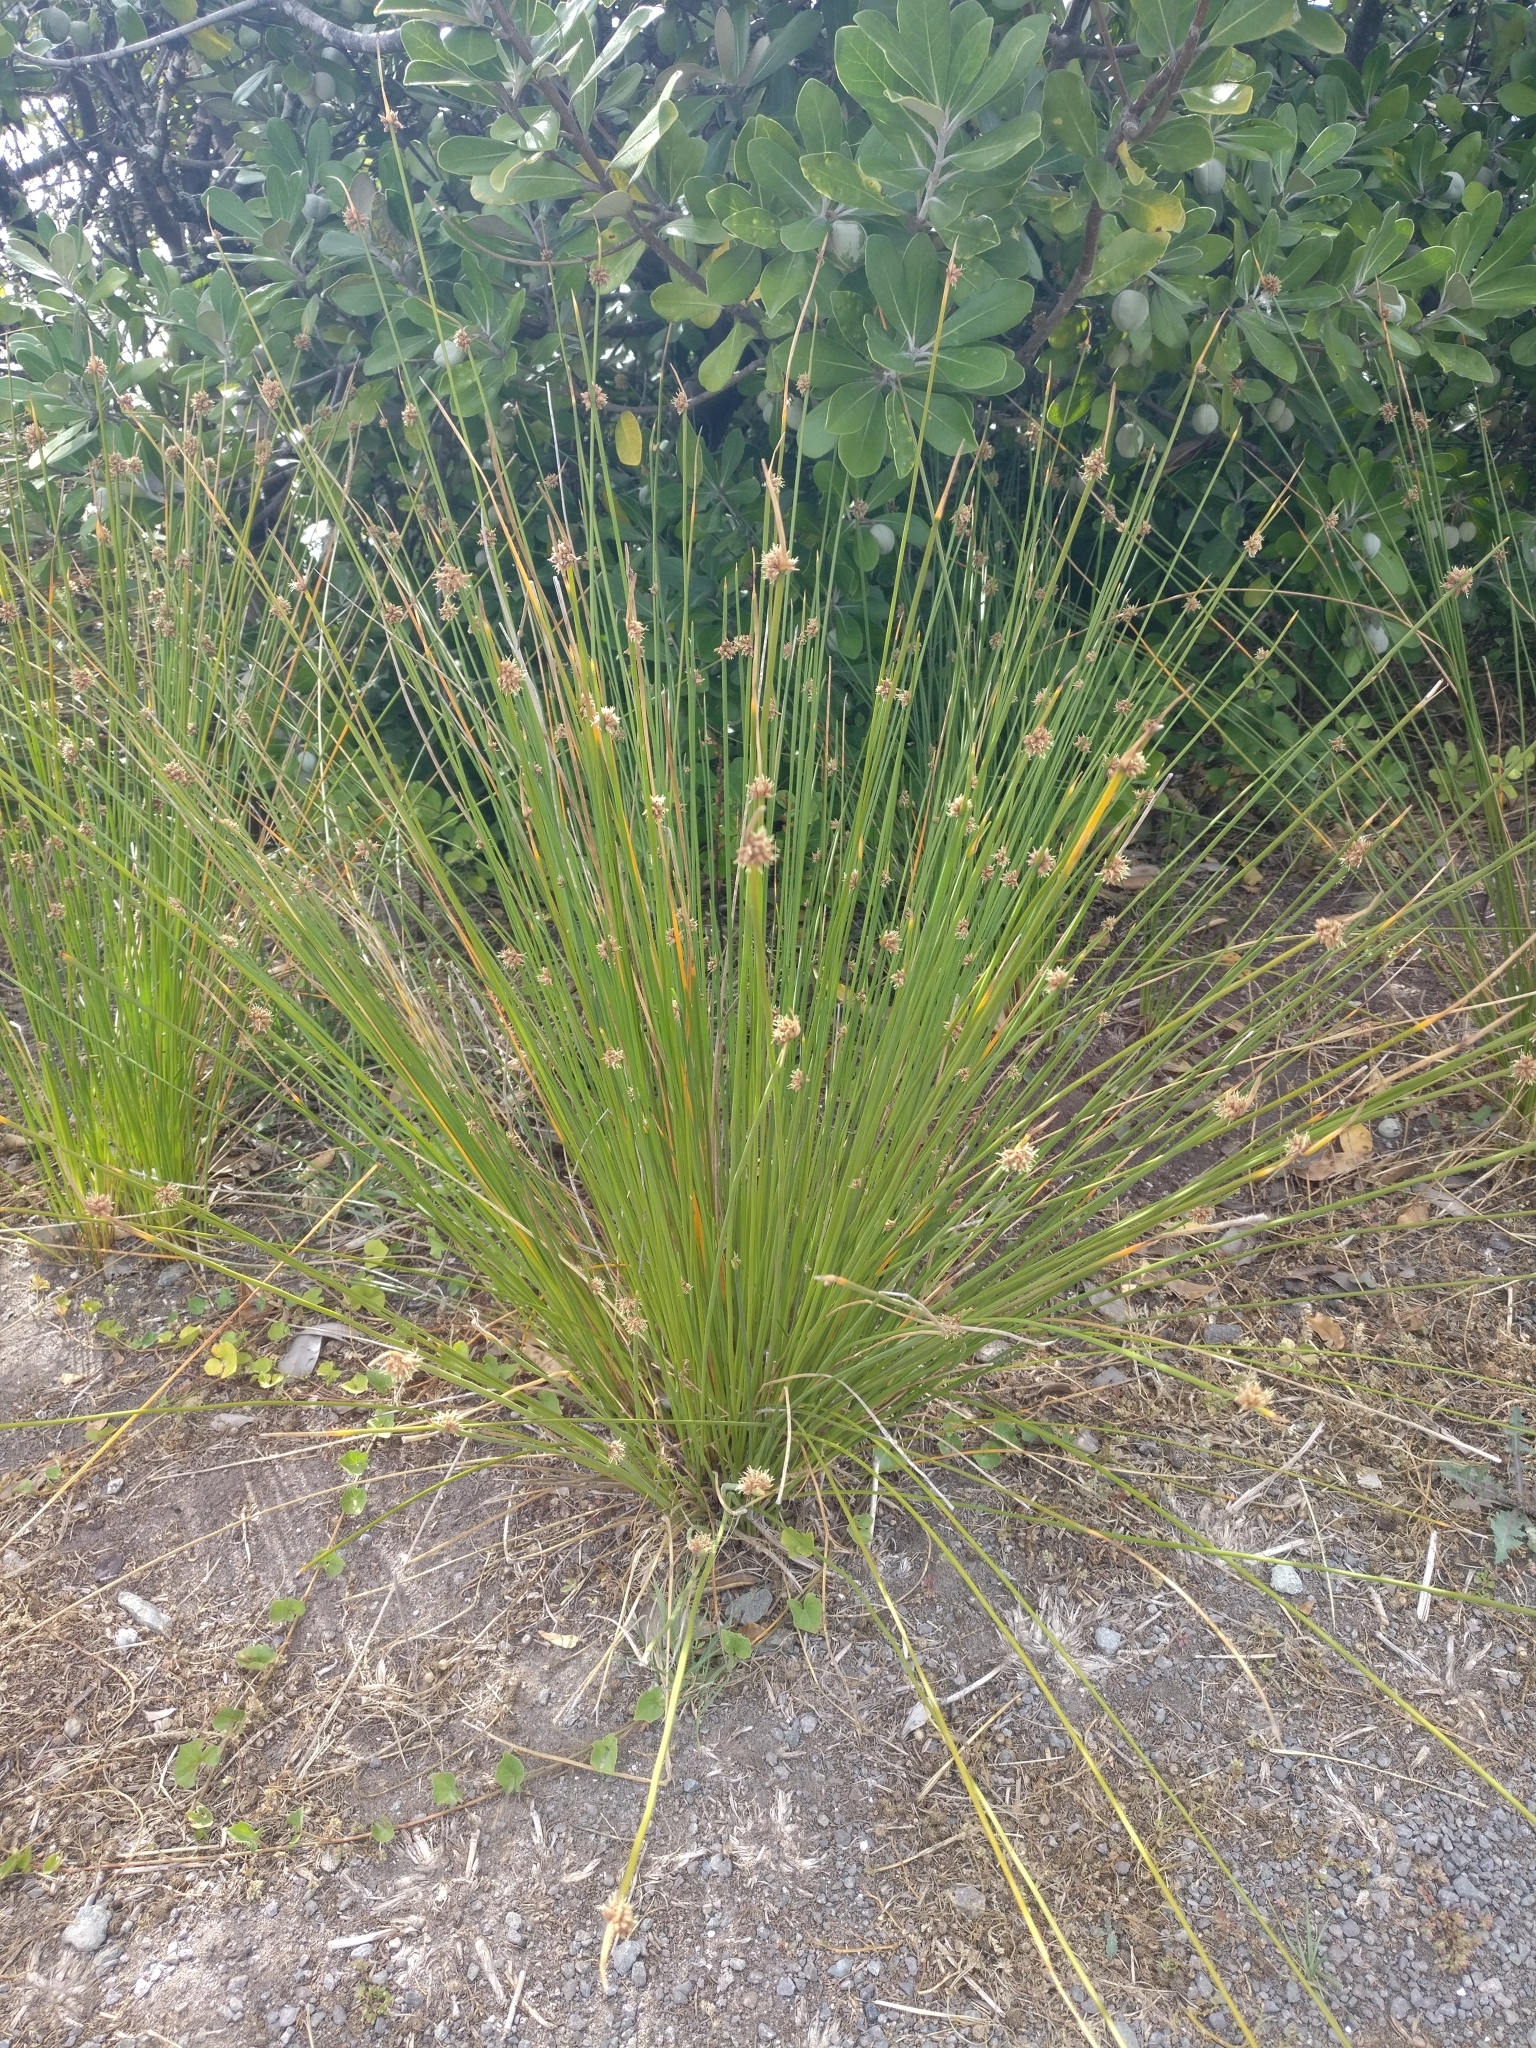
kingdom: Plantae
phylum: Tracheophyta
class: Liliopsida
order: Poales
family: Cyperaceae
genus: Ficinia
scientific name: Ficinia nodosa
